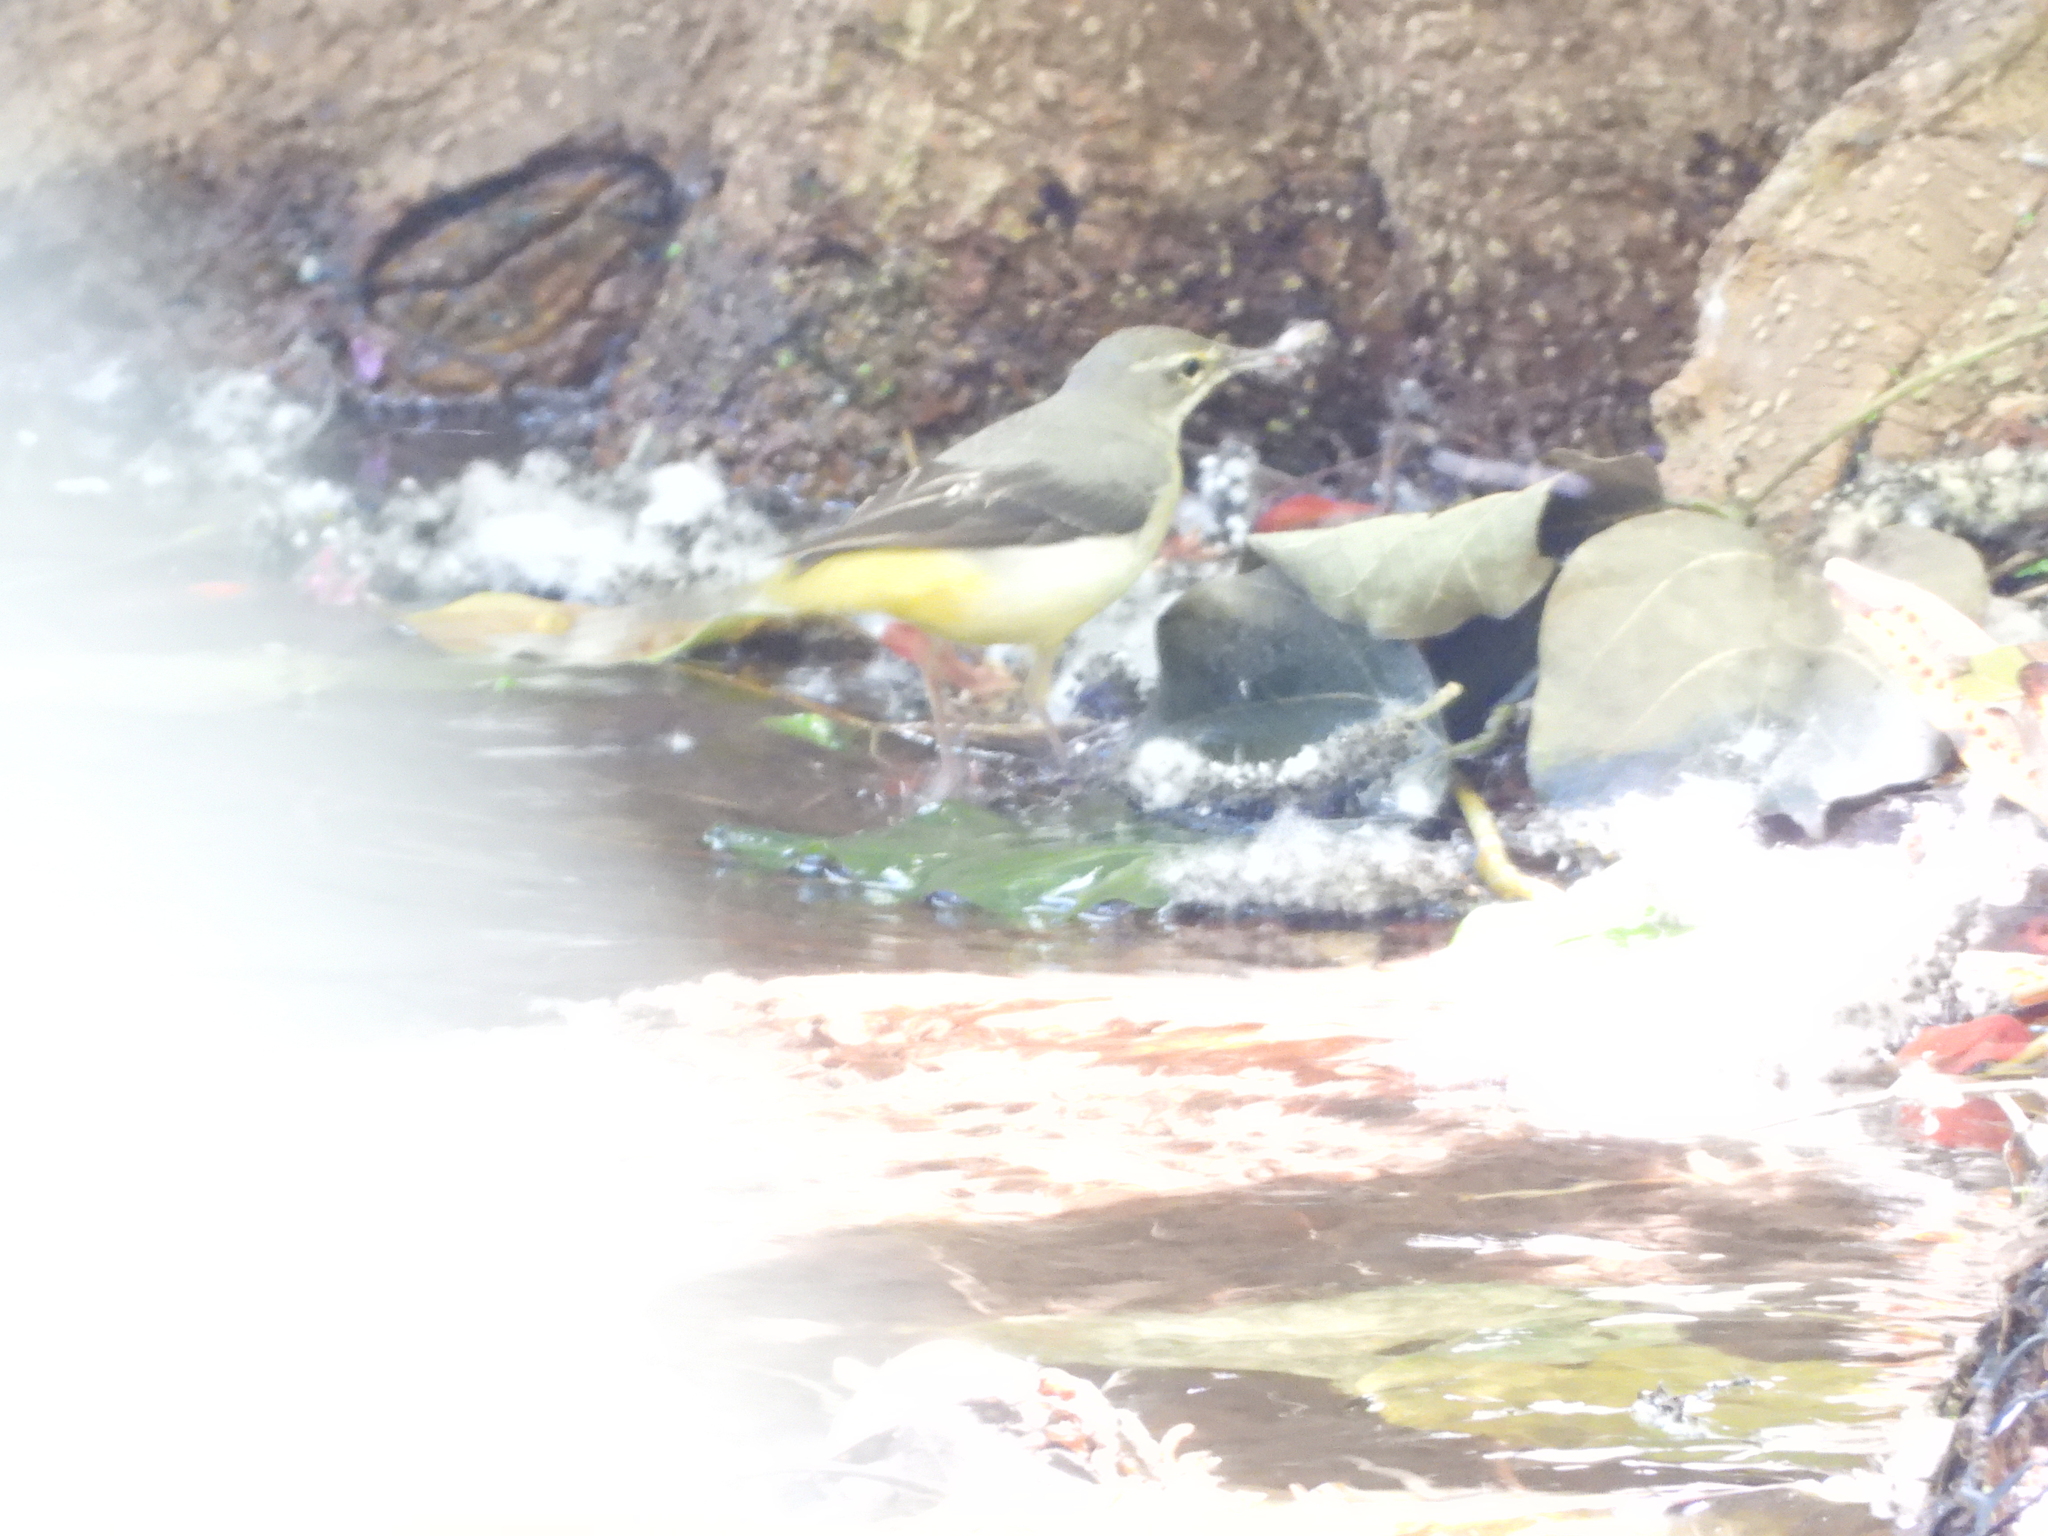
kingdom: Animalia
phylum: Chordata
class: Aves
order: Passeriformes
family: Motacillidae
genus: Motacilla
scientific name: Motacilla cinerea
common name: Grey wagtail
